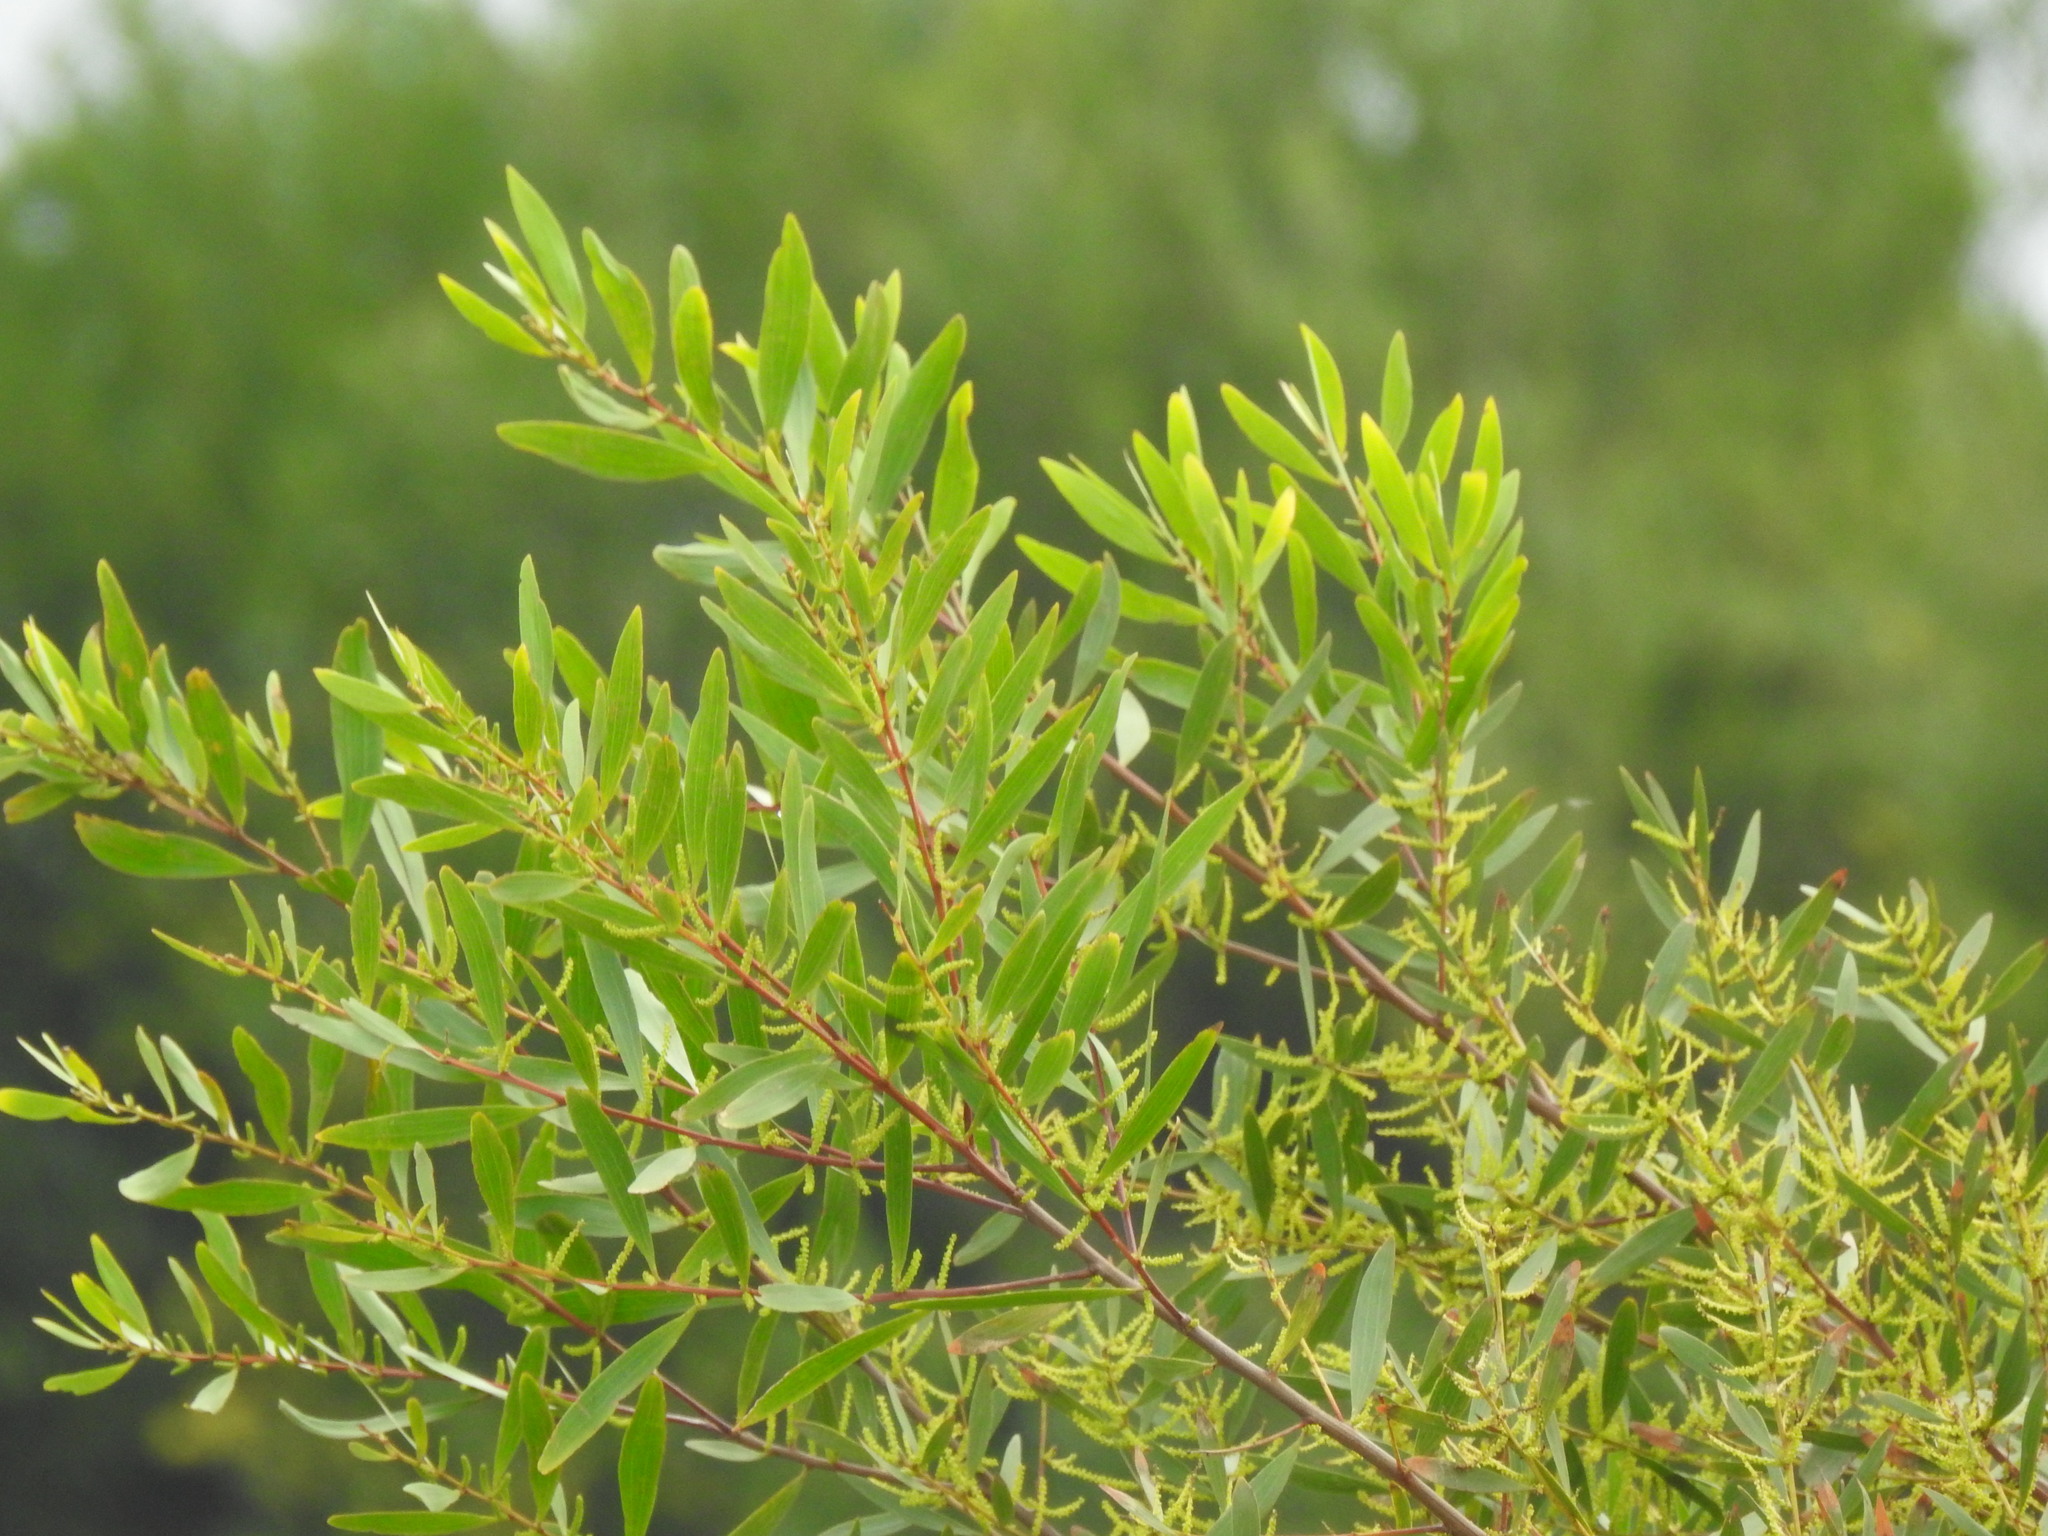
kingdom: Plantae
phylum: Tracheophyta
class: Magnoliopsida
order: Fabales
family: Fabaceae
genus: Acacia
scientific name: Acacia longifolia
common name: Sydney golden wattle
